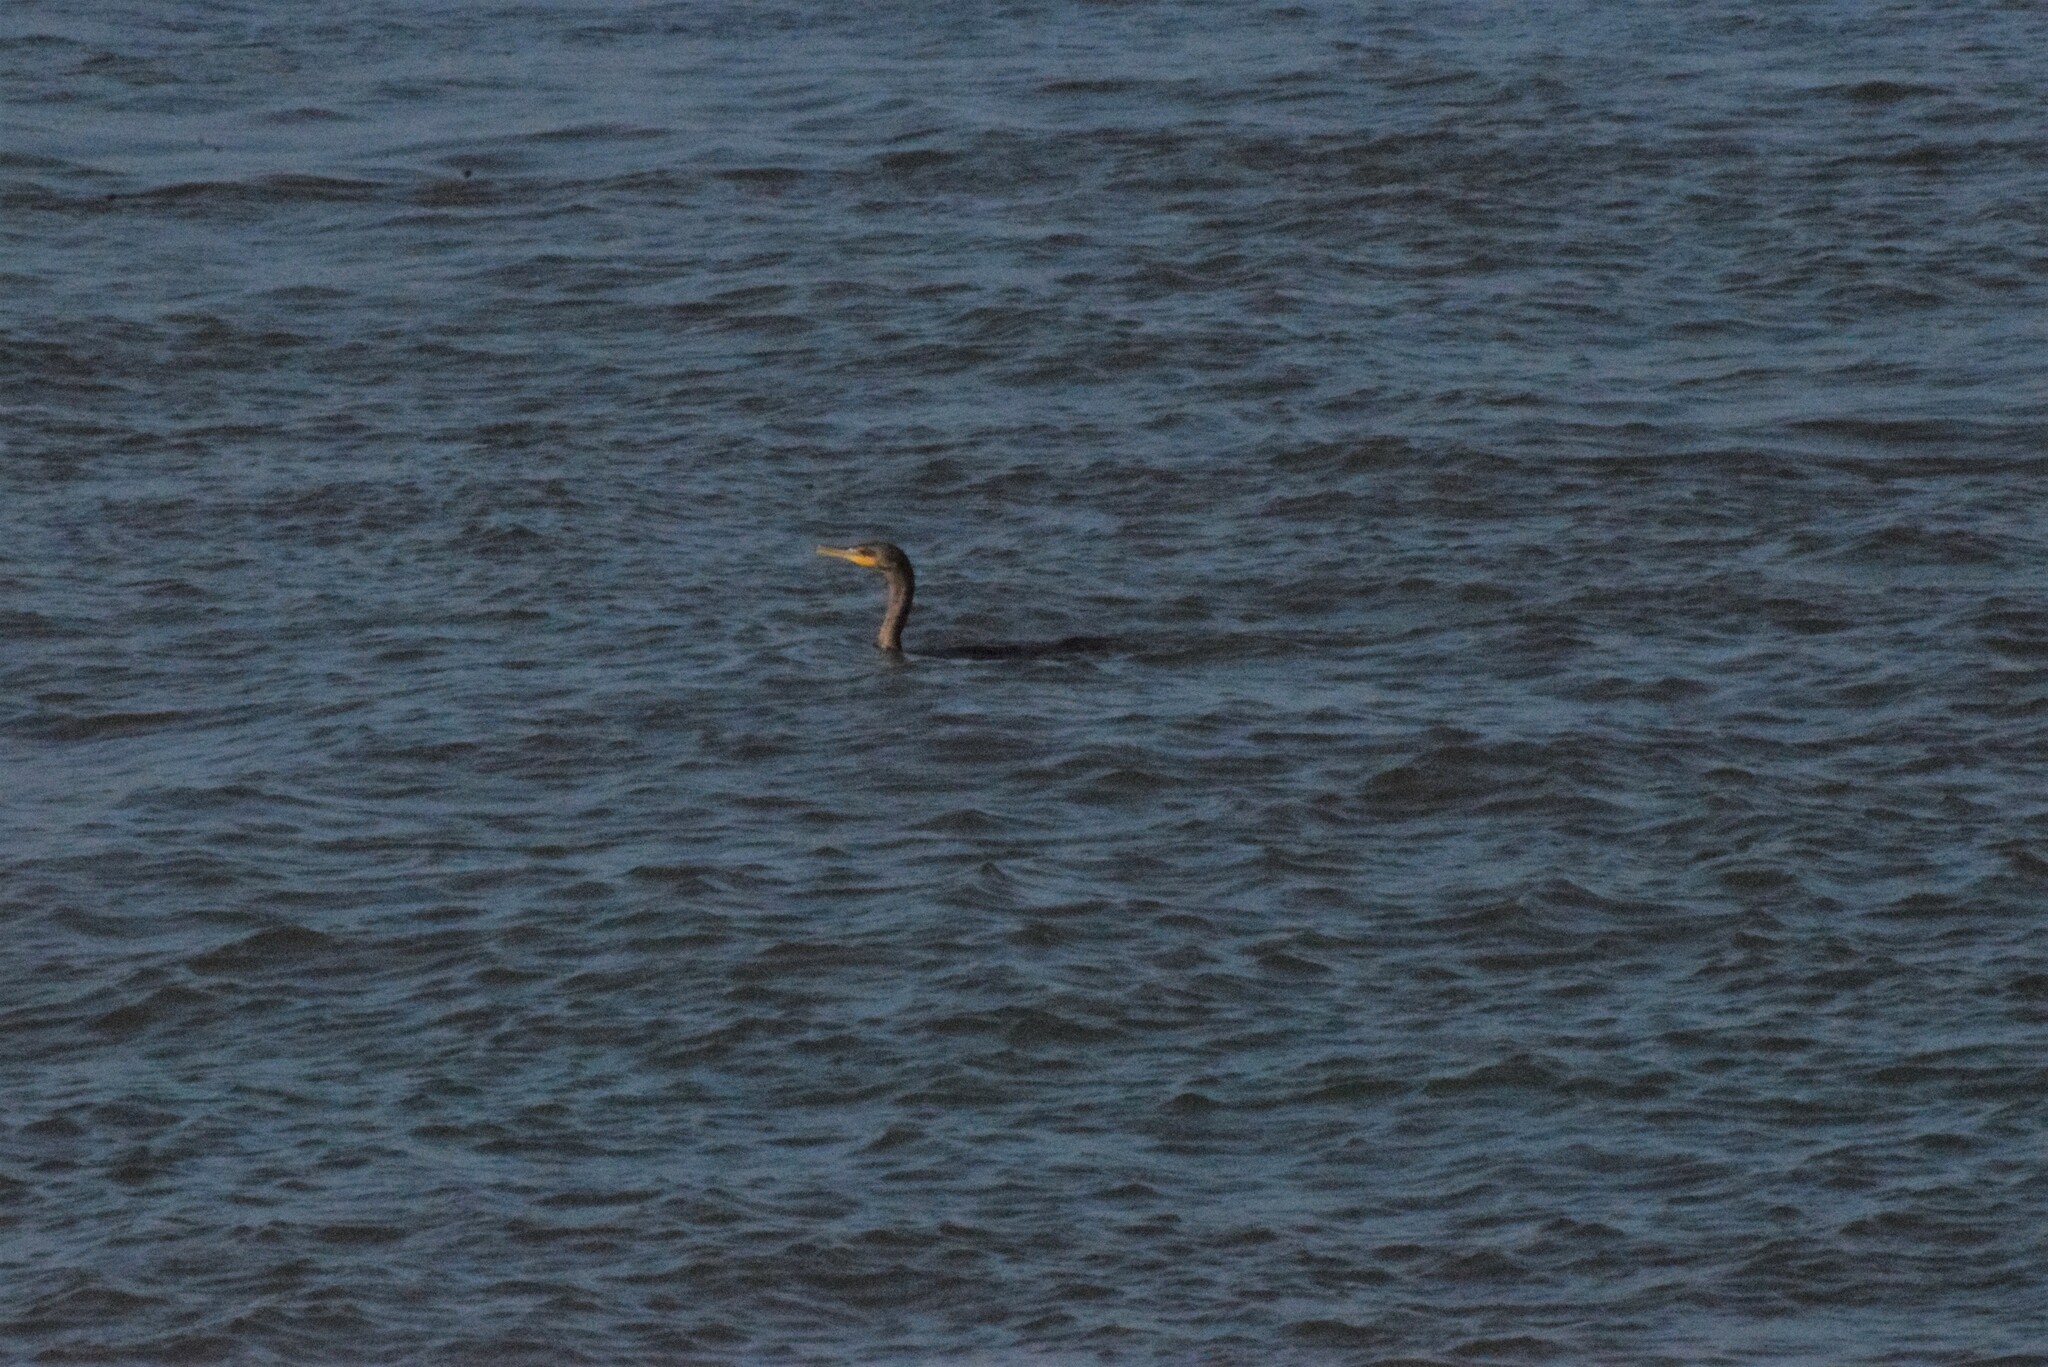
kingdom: Animalia
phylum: Chordata
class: Aves
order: Suliformes
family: Phalacrocoracidae
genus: Phalacrocorax
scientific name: Phalacrocorax auritus
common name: Double-crested cormorant
